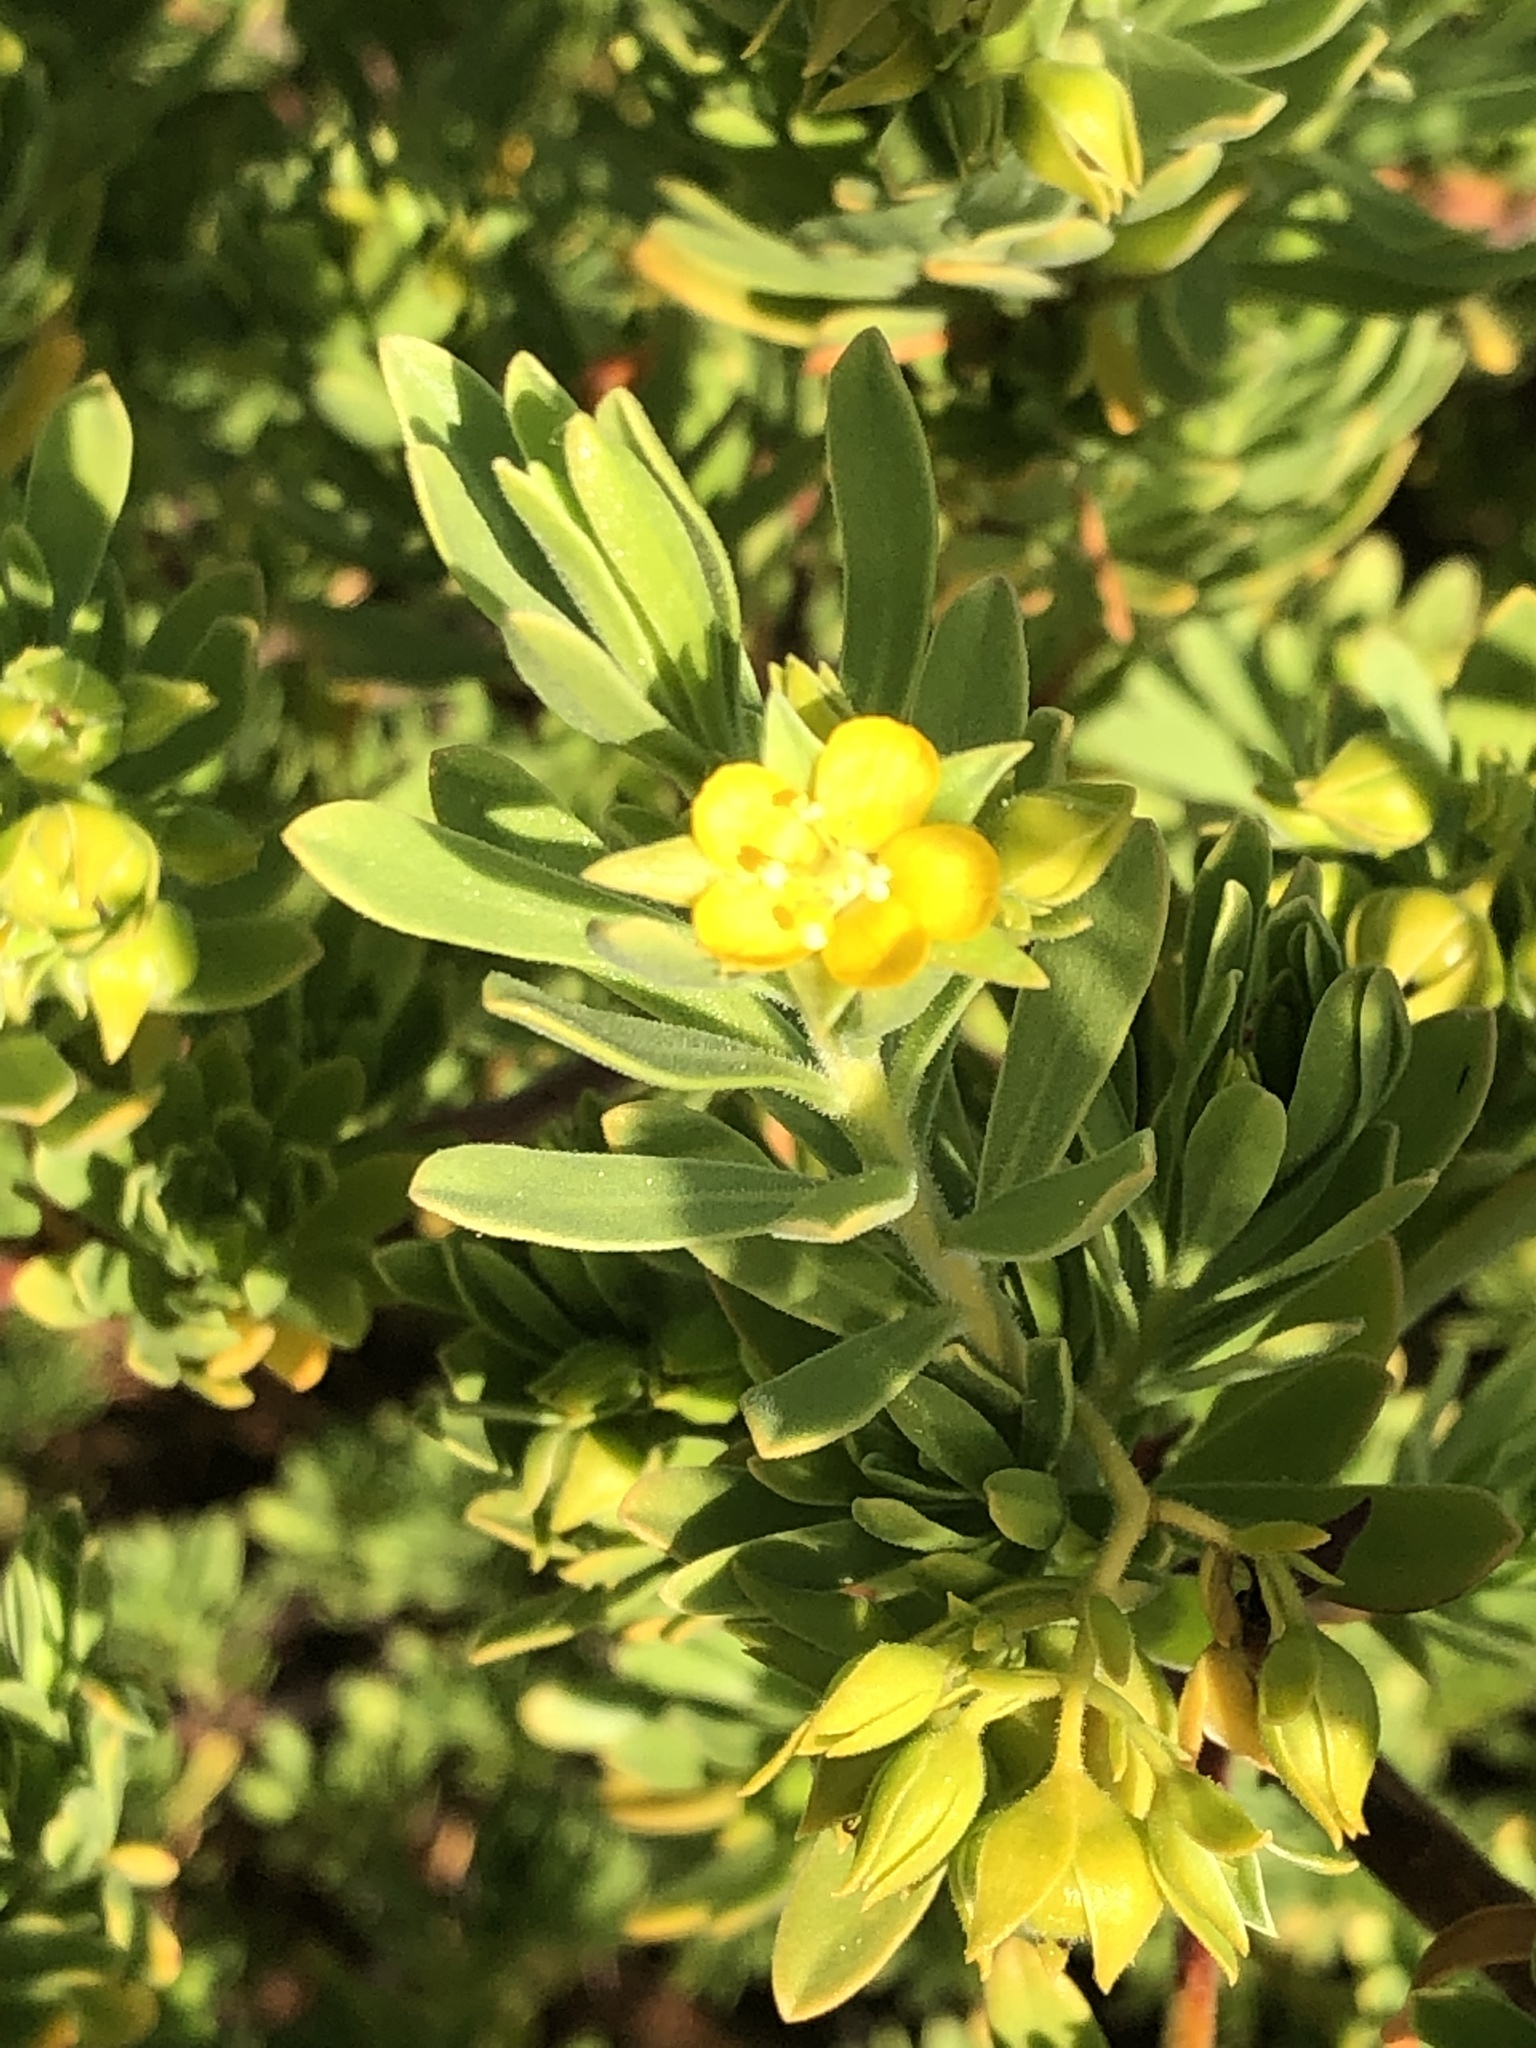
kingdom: Plantae
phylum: Tracheophyta
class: Magnoliopsida
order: Fabales
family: Surianaceae
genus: Suriana
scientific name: Suriana maritima
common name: Bay-cedar
